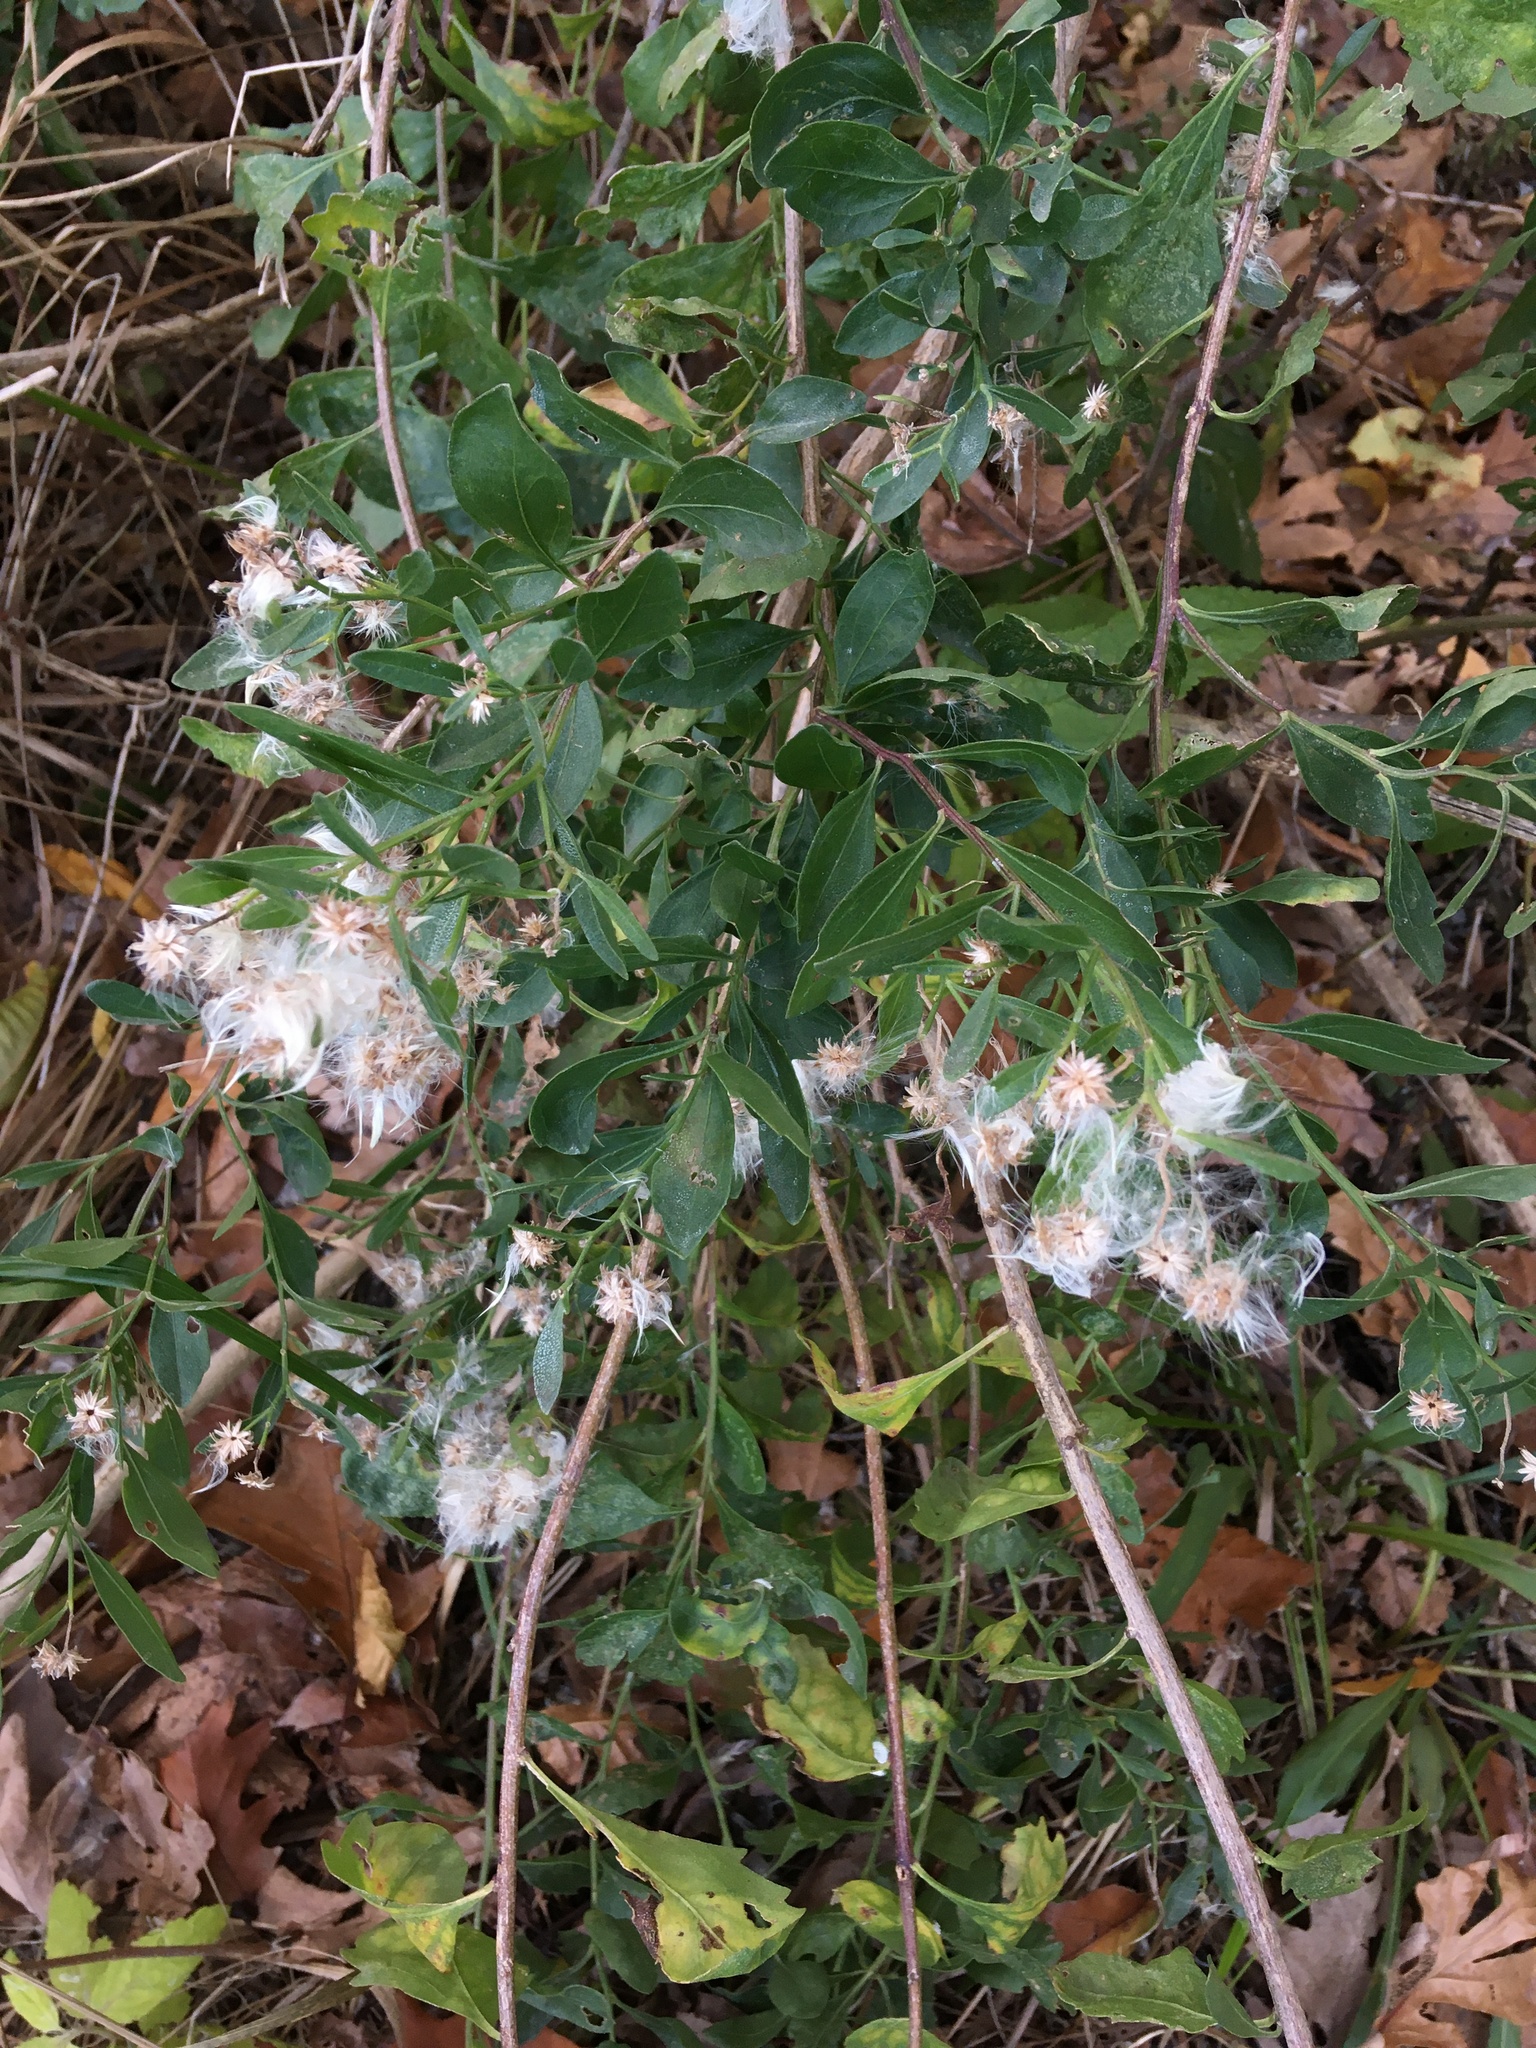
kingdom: Plantae
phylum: Tracheophyta
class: Magnoliopsida
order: Asterales
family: Asteraceae
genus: Baccharis
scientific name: Baccharis halimifolia
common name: Eastern baccharis
